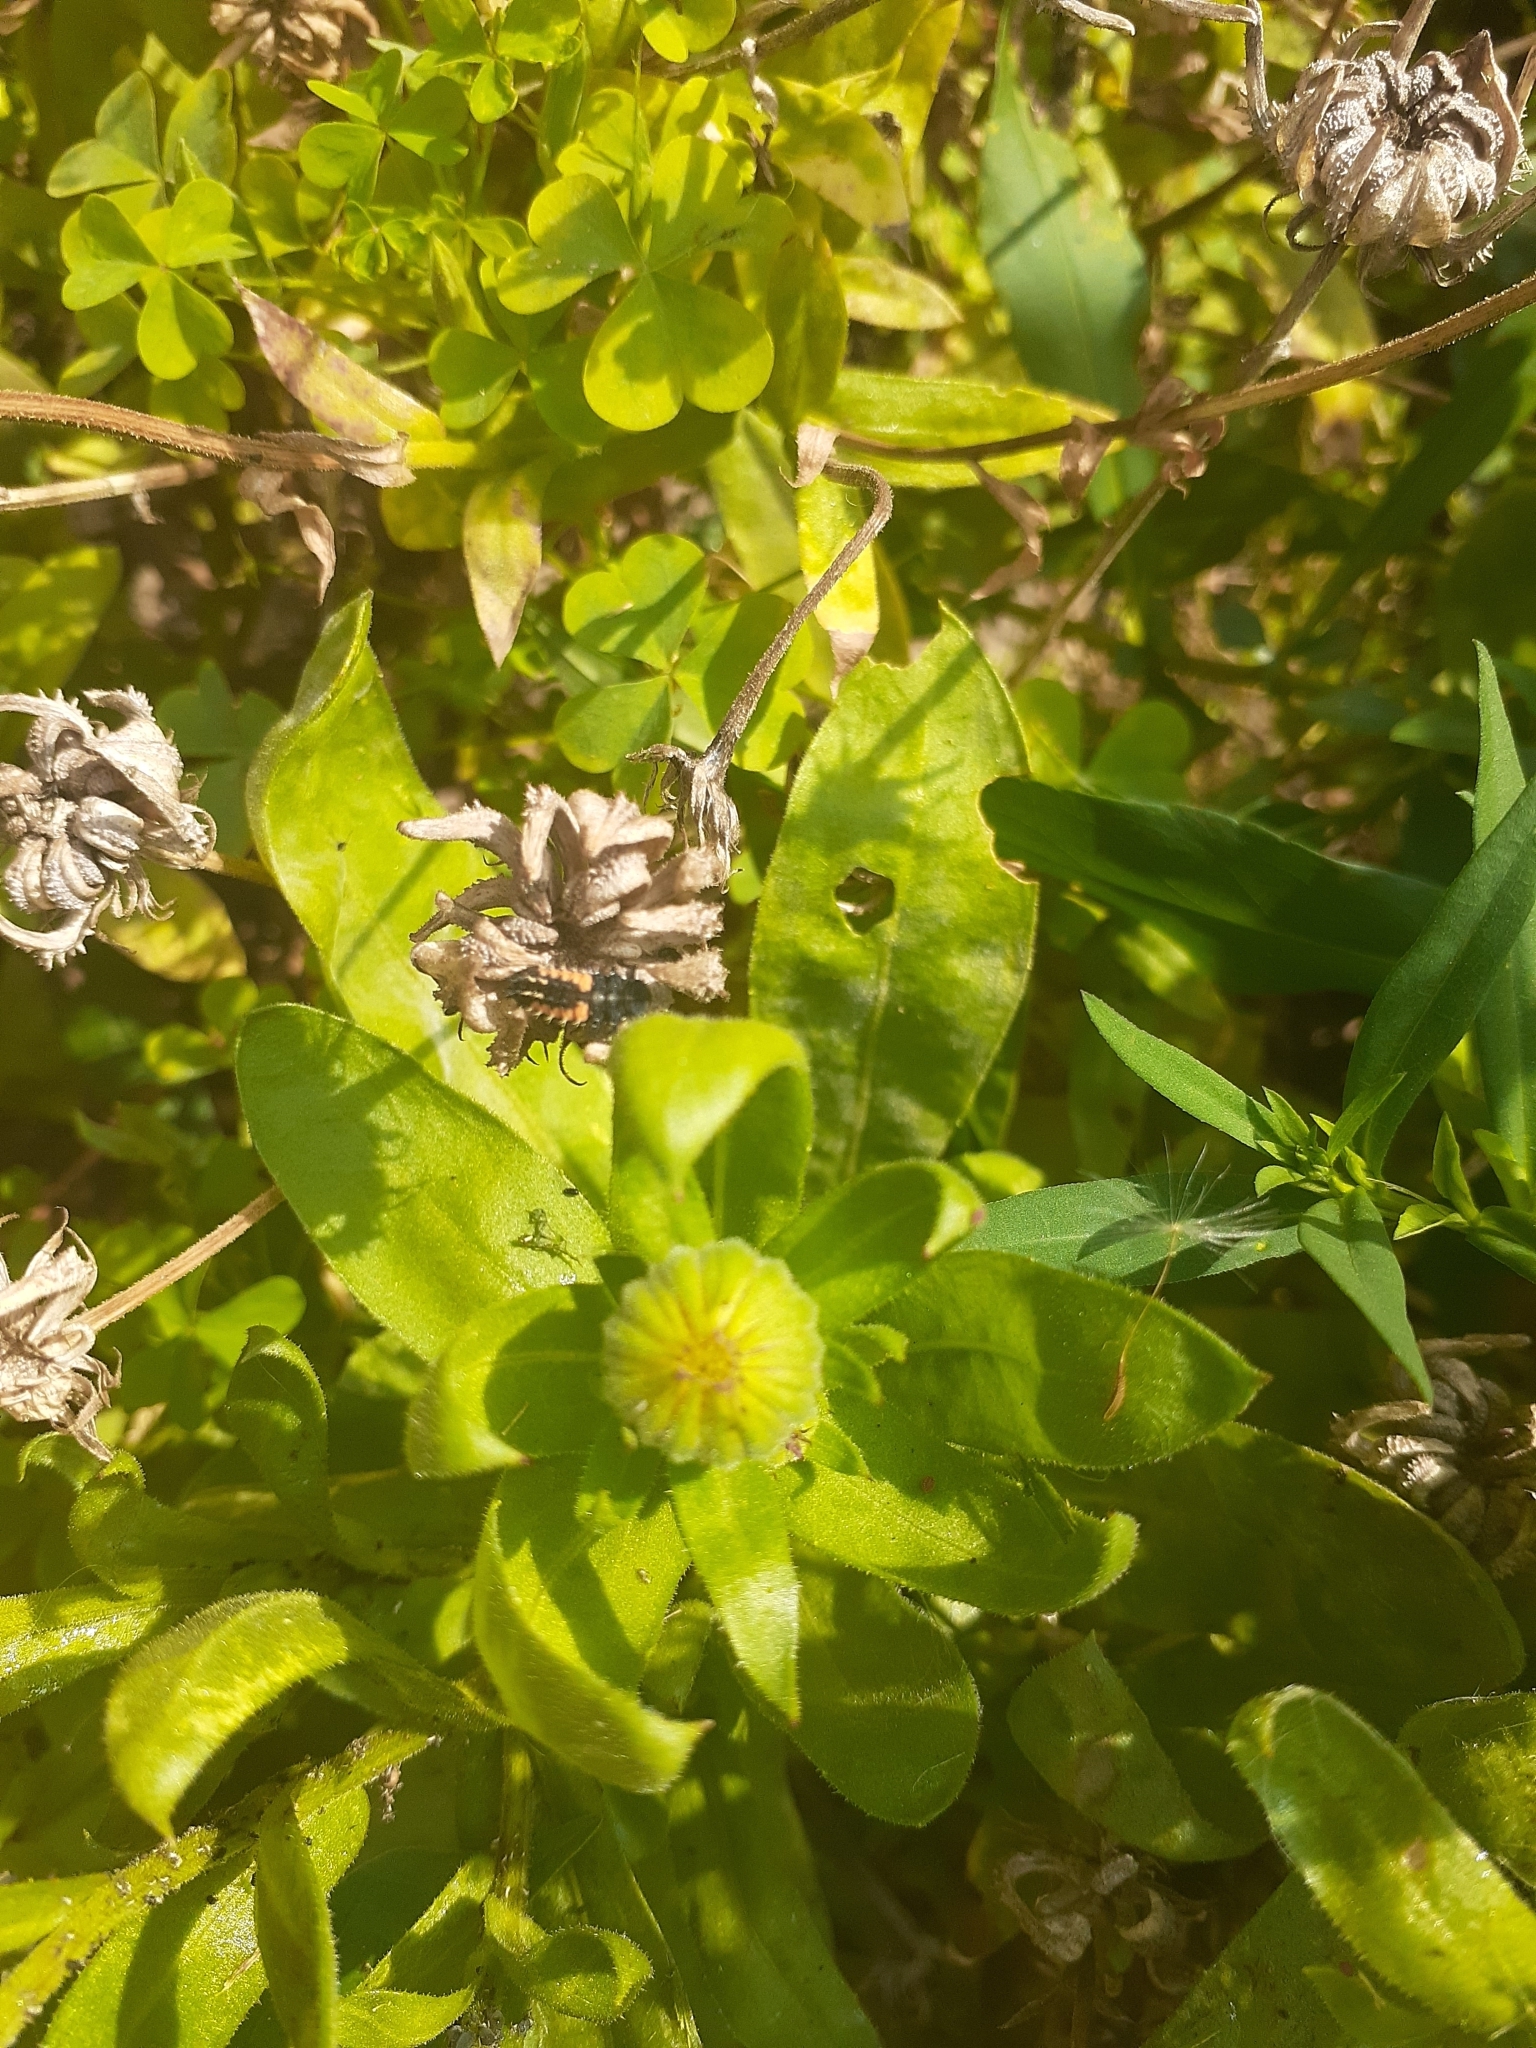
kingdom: Animalia
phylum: Arthropoda
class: Insecta
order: Coleoptera
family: Coccinellidae
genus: Harmonia
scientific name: Harmonia axyridis
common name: Harlequin ladybird
